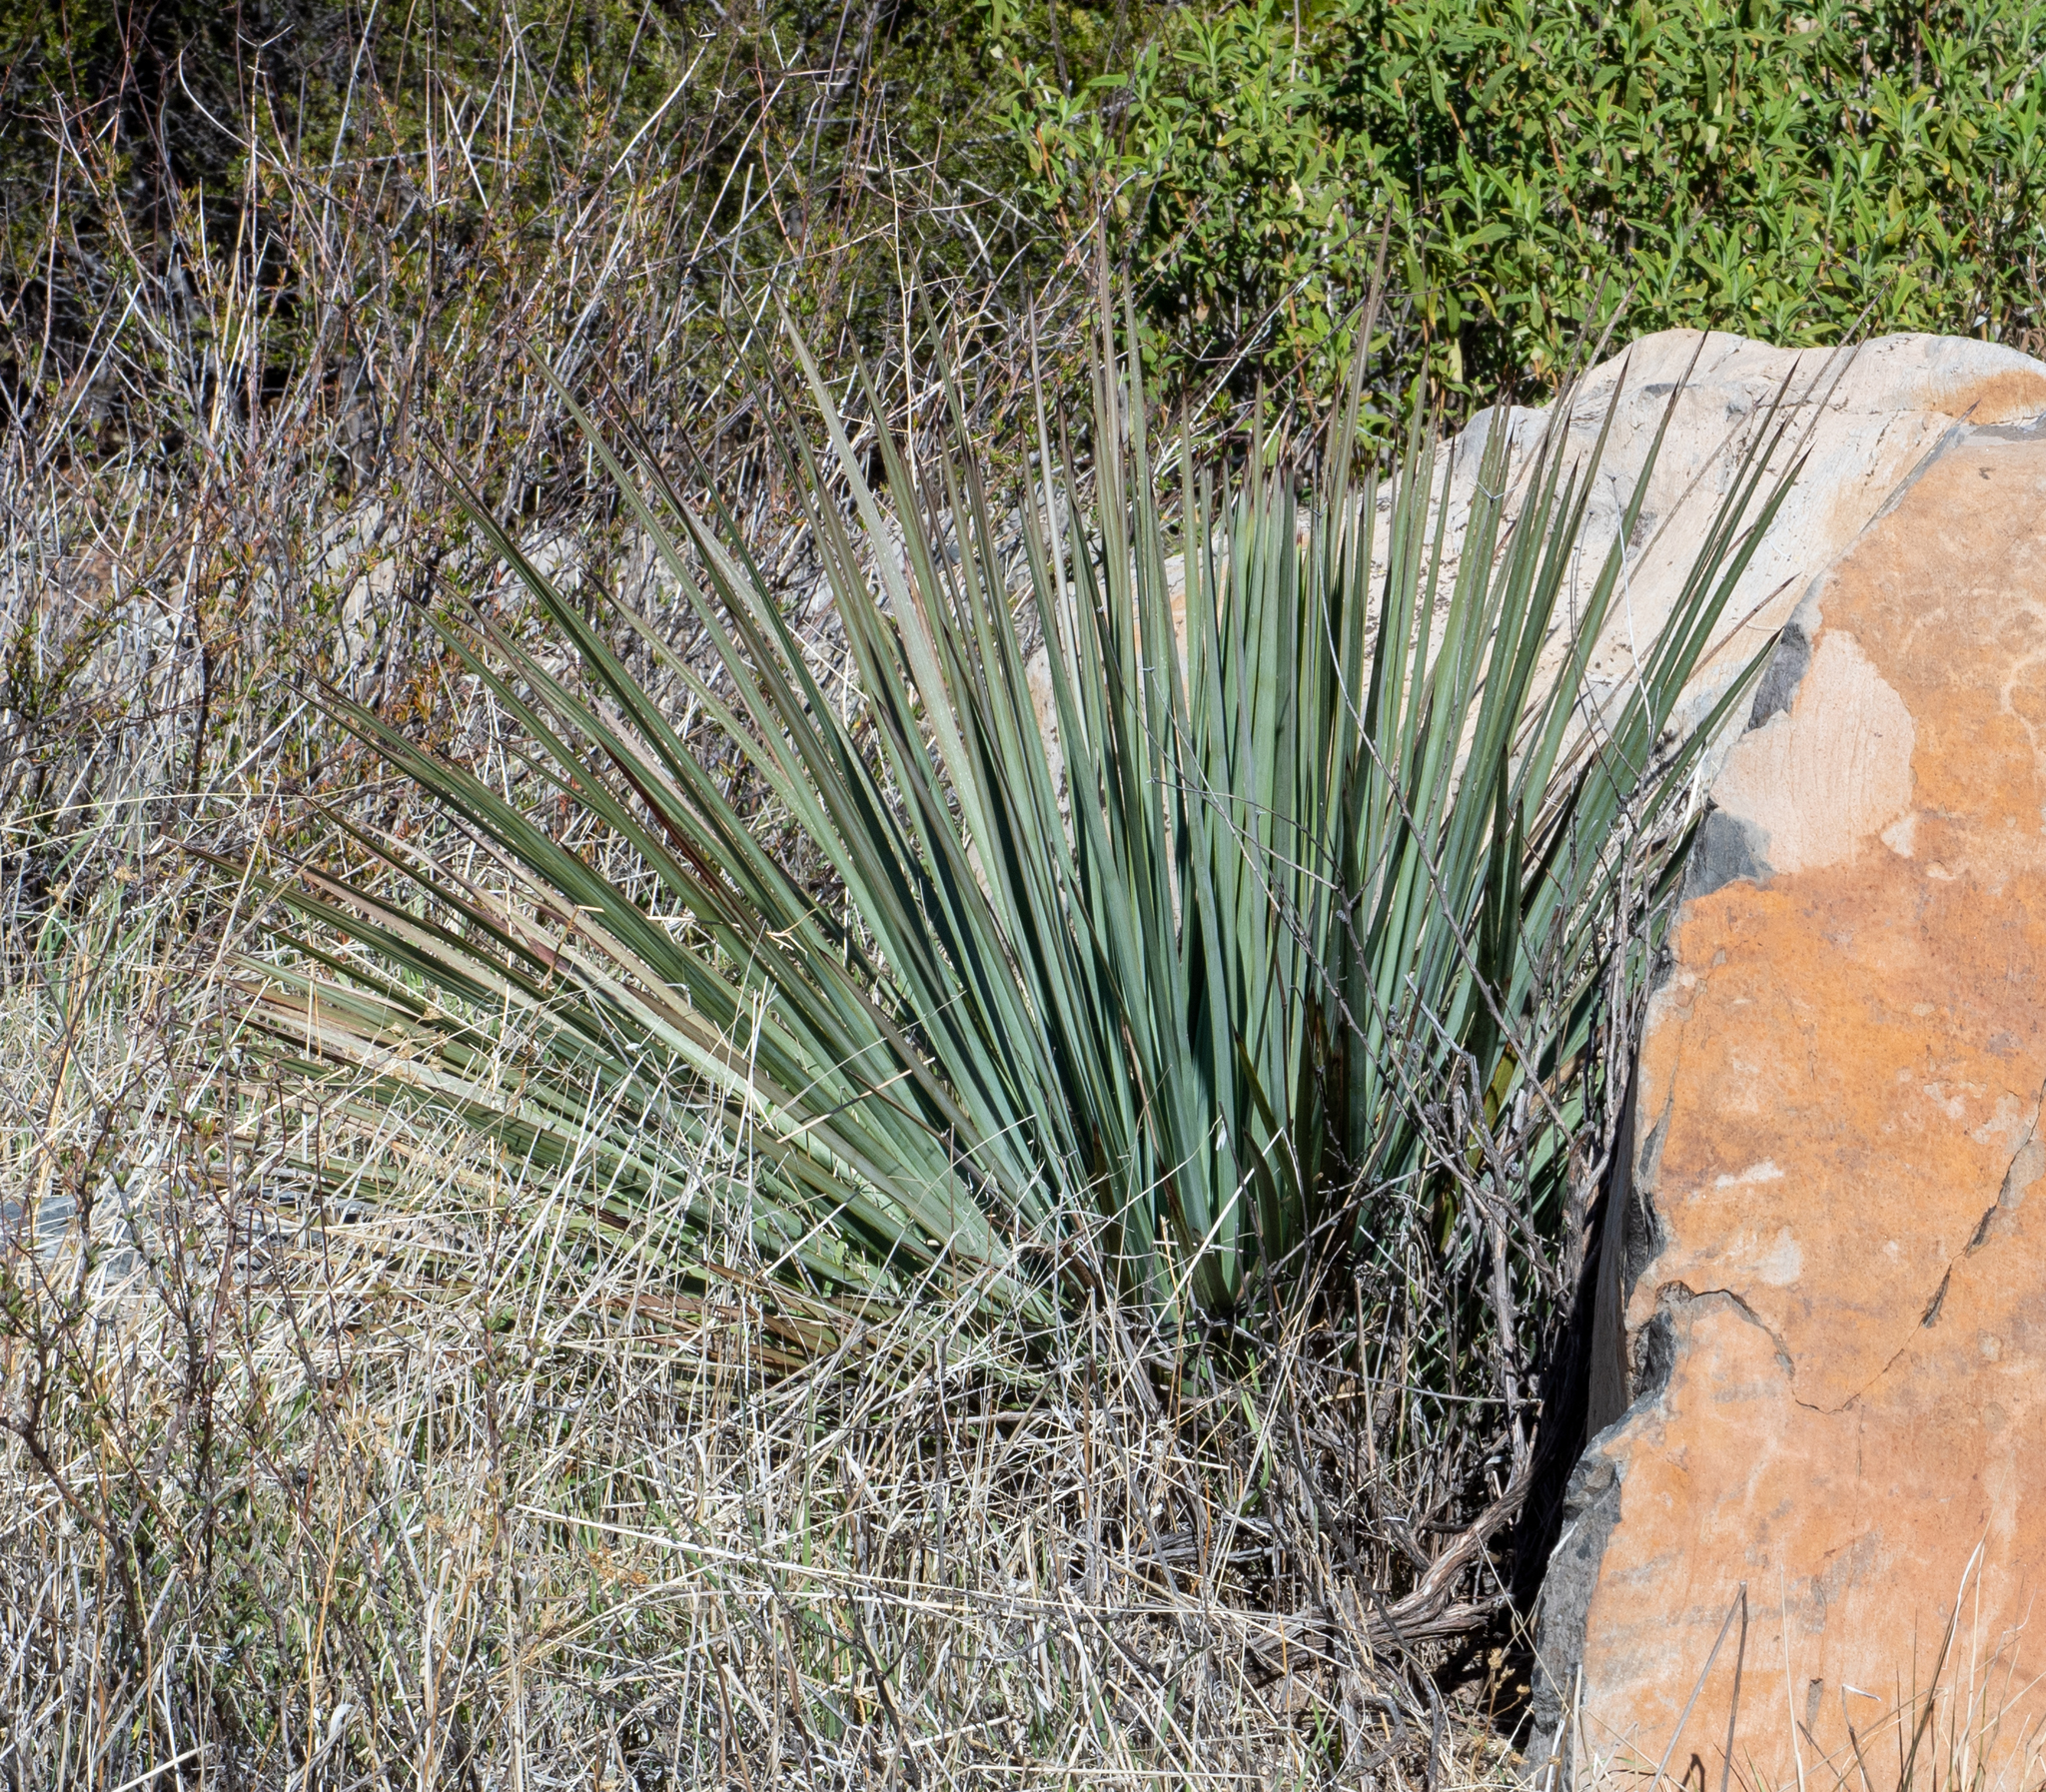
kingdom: Plantae
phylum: Tracheophyta
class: Liliopsida
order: Asparagales
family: Asparagaceae
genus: Hesperoyucca
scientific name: Hesperoyucca whipplei
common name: Our lord's-candle
